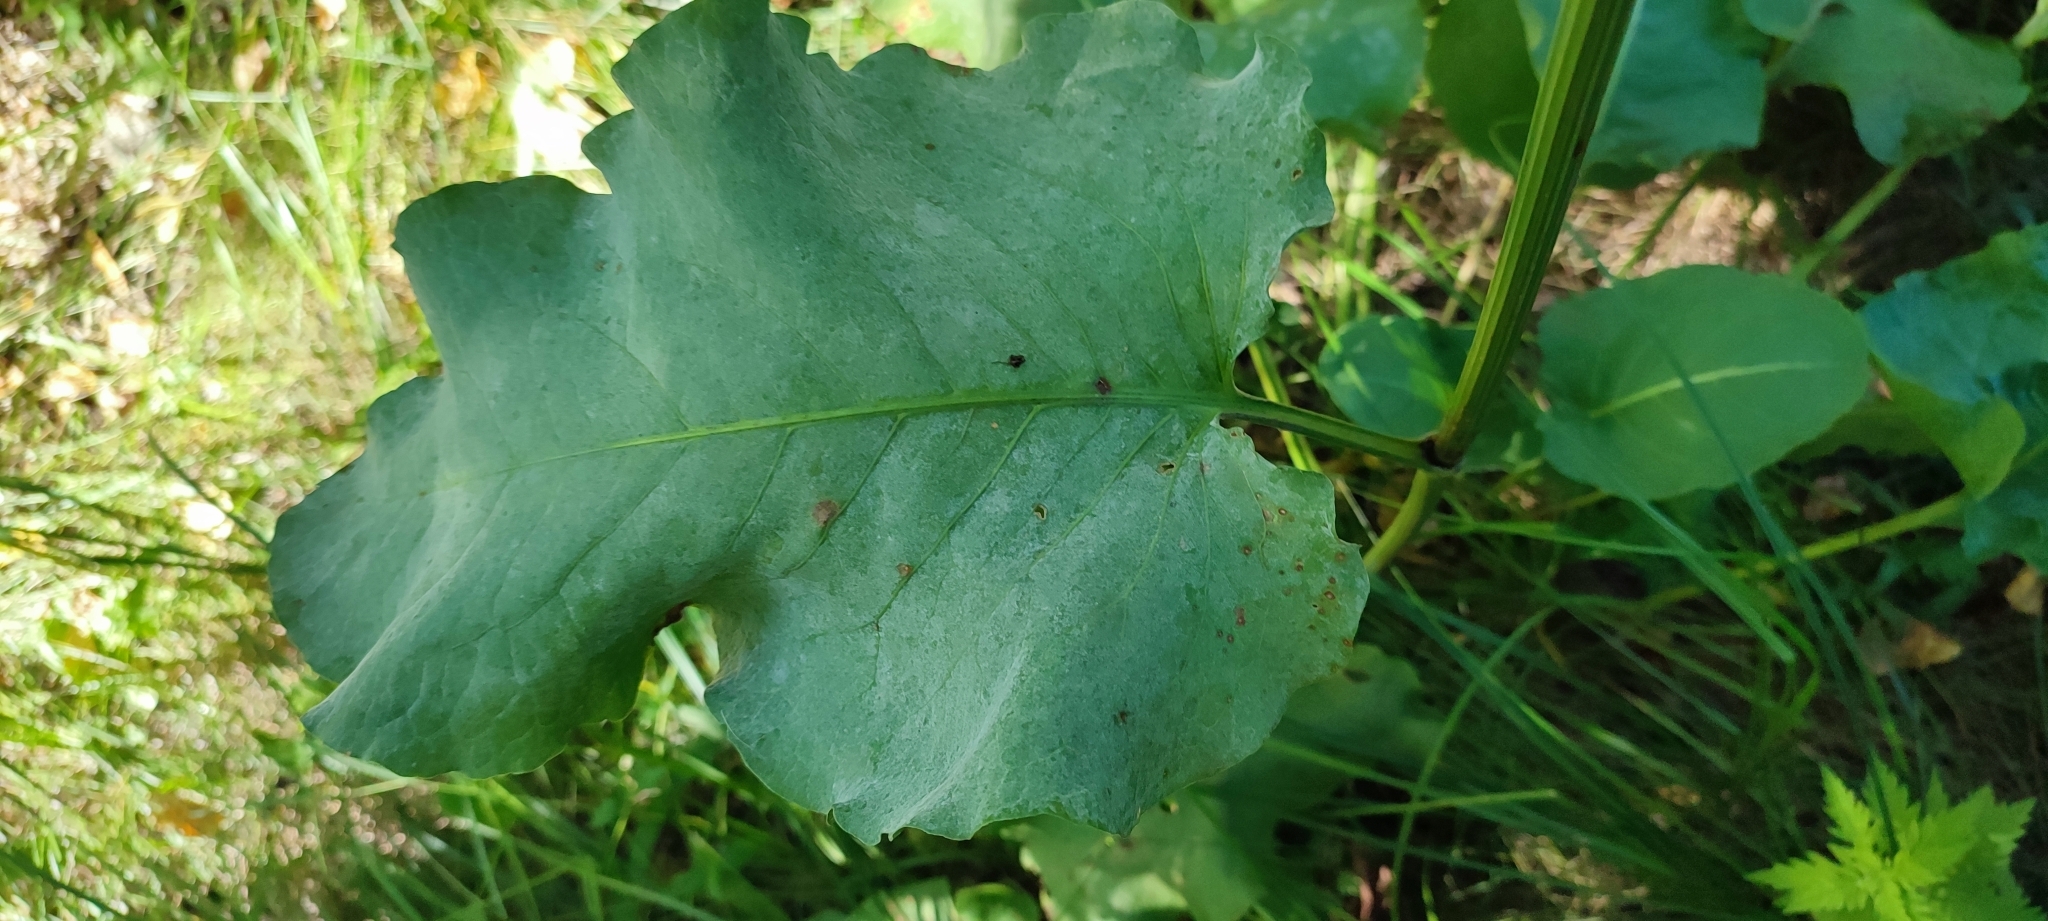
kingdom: Plantae
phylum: Tracheophyta
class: Magnoliopsida
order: Caryophyllales
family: Polygonaceae
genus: Rumex
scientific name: Rumex confertus
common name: Russian dock
